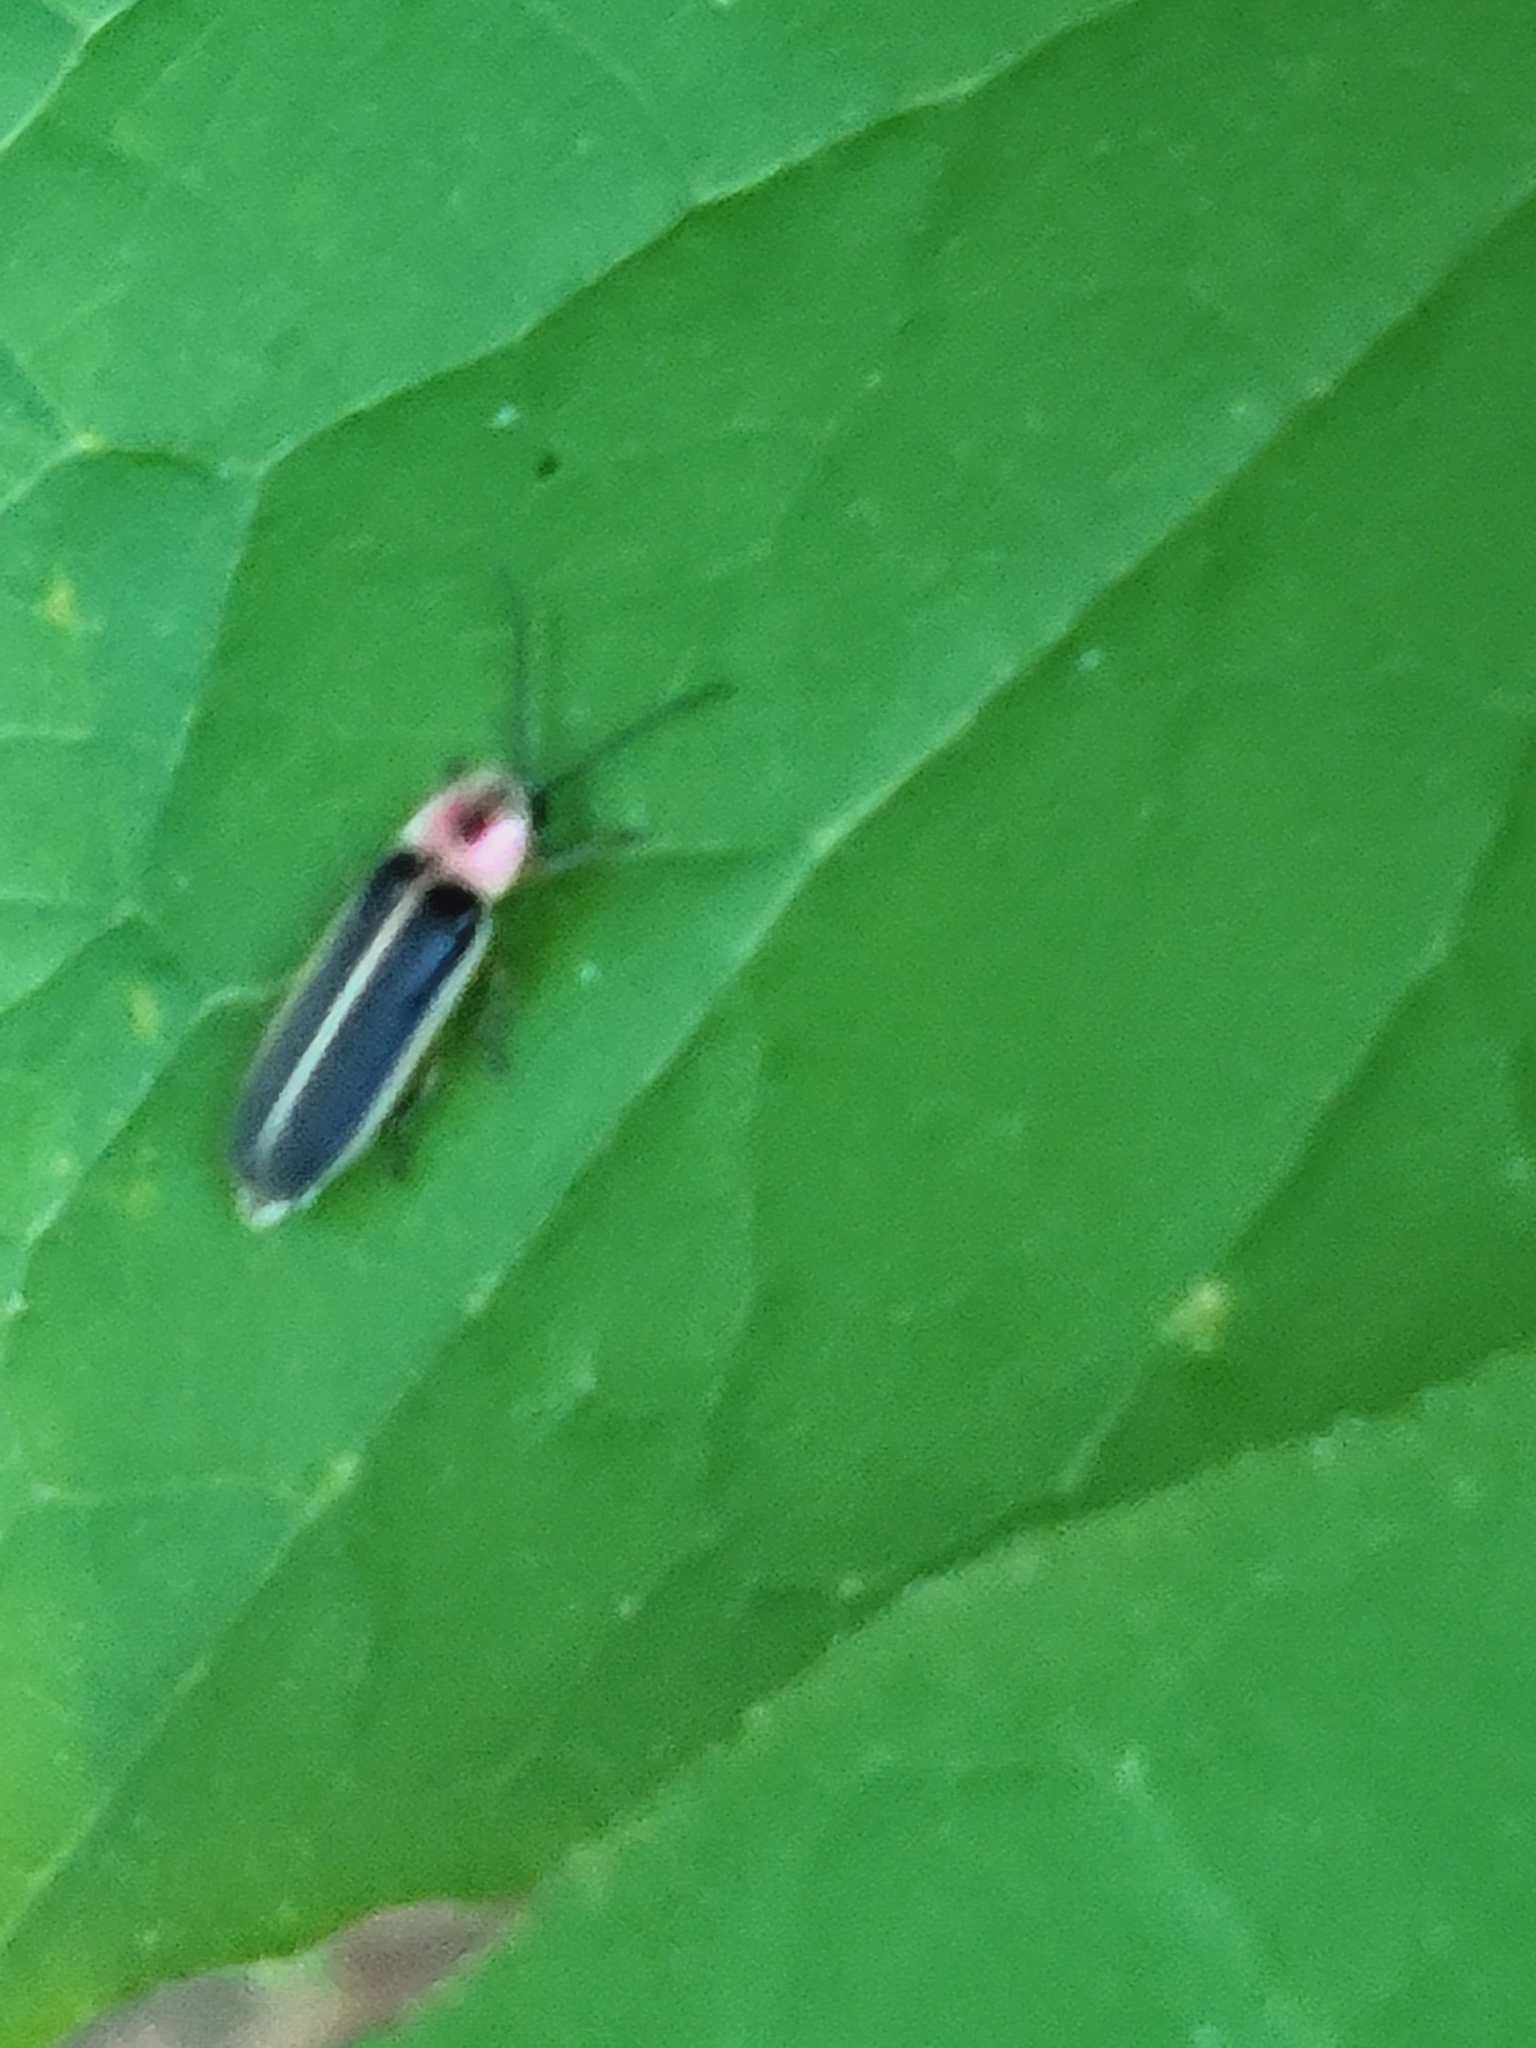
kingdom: Animalia
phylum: Arthropoda
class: Insecta
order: Coleoptera
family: Lampyridae
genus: Photinus
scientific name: Photinus pyralis
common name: Big dipper firefly
